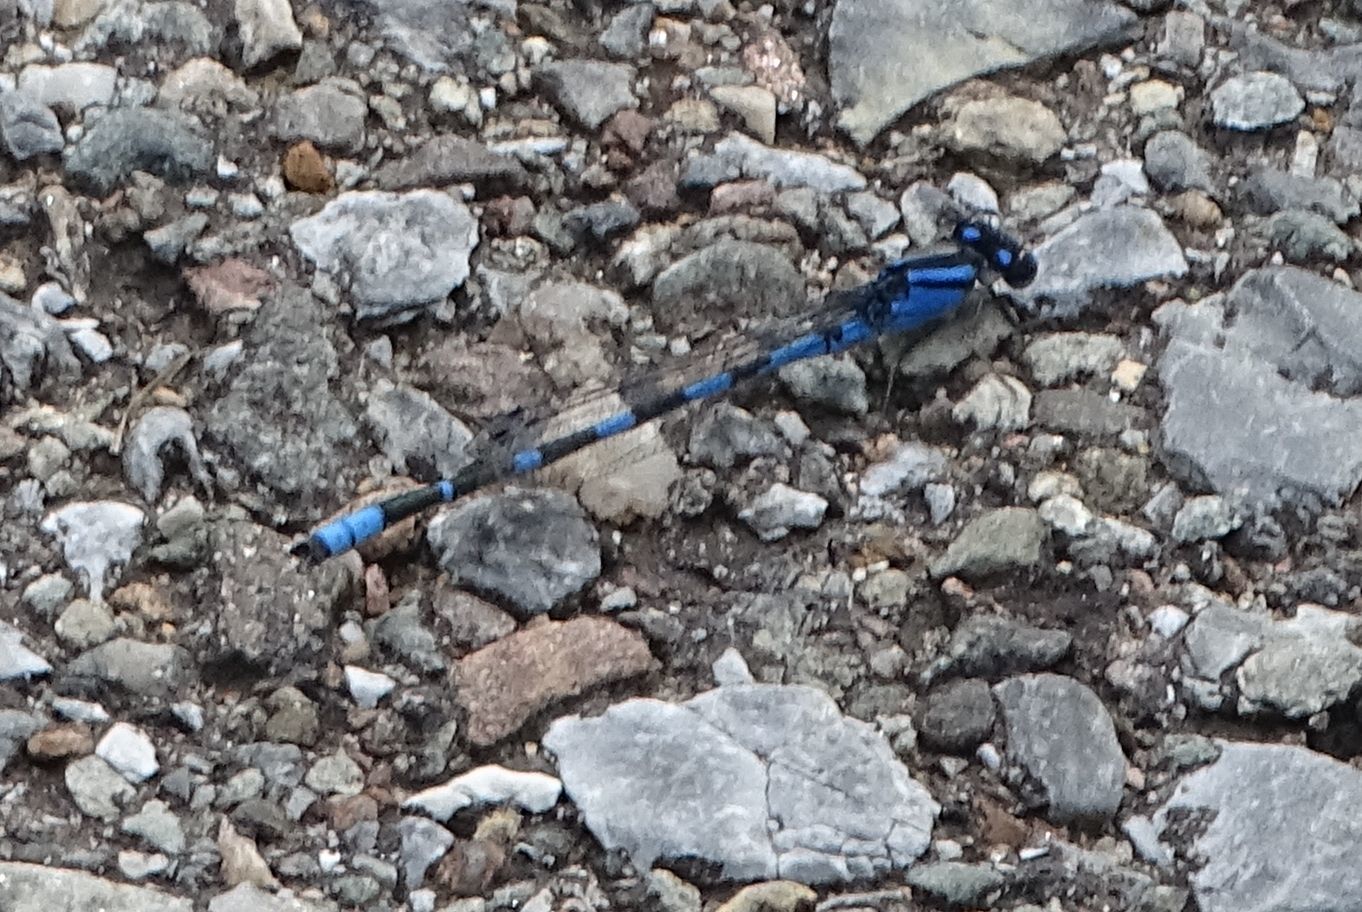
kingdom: Animalia
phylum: Arthropoda
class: Insecta
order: Odonata
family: Coenagrionidae
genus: Enallagma
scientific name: Enallagma carunculatum
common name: Tule bluet
